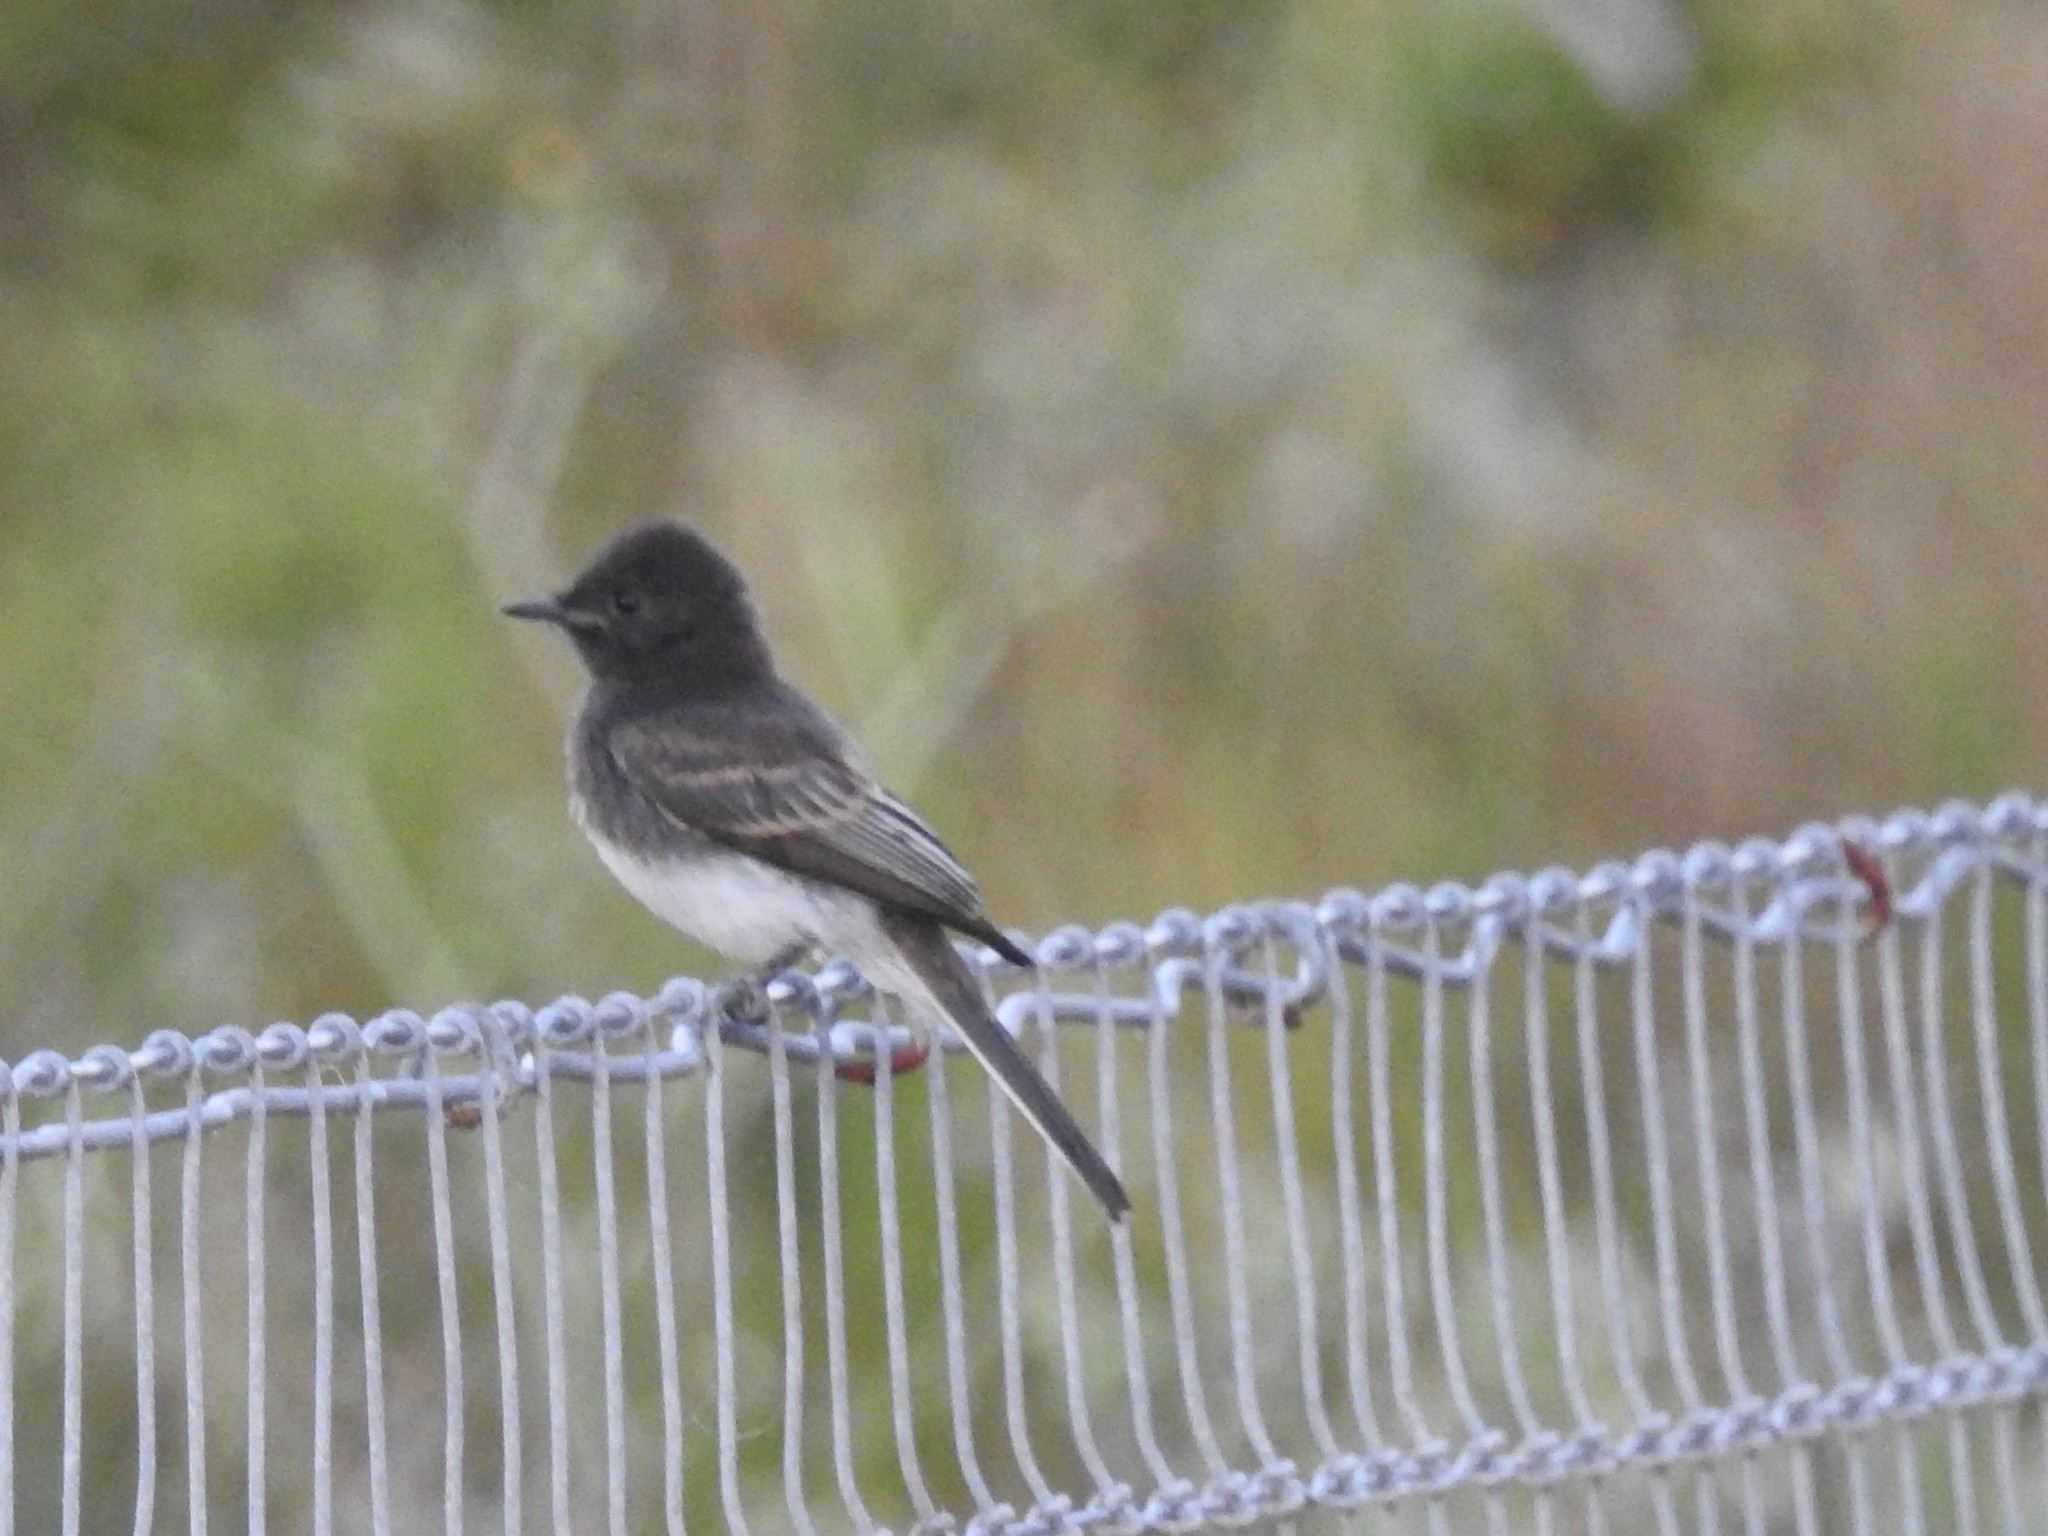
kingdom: Animalia
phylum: Chordata
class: Aves
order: Passeriformes
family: Tyrannidae
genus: Sayornis
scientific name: Sayornis nigricans
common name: Black phoebe
